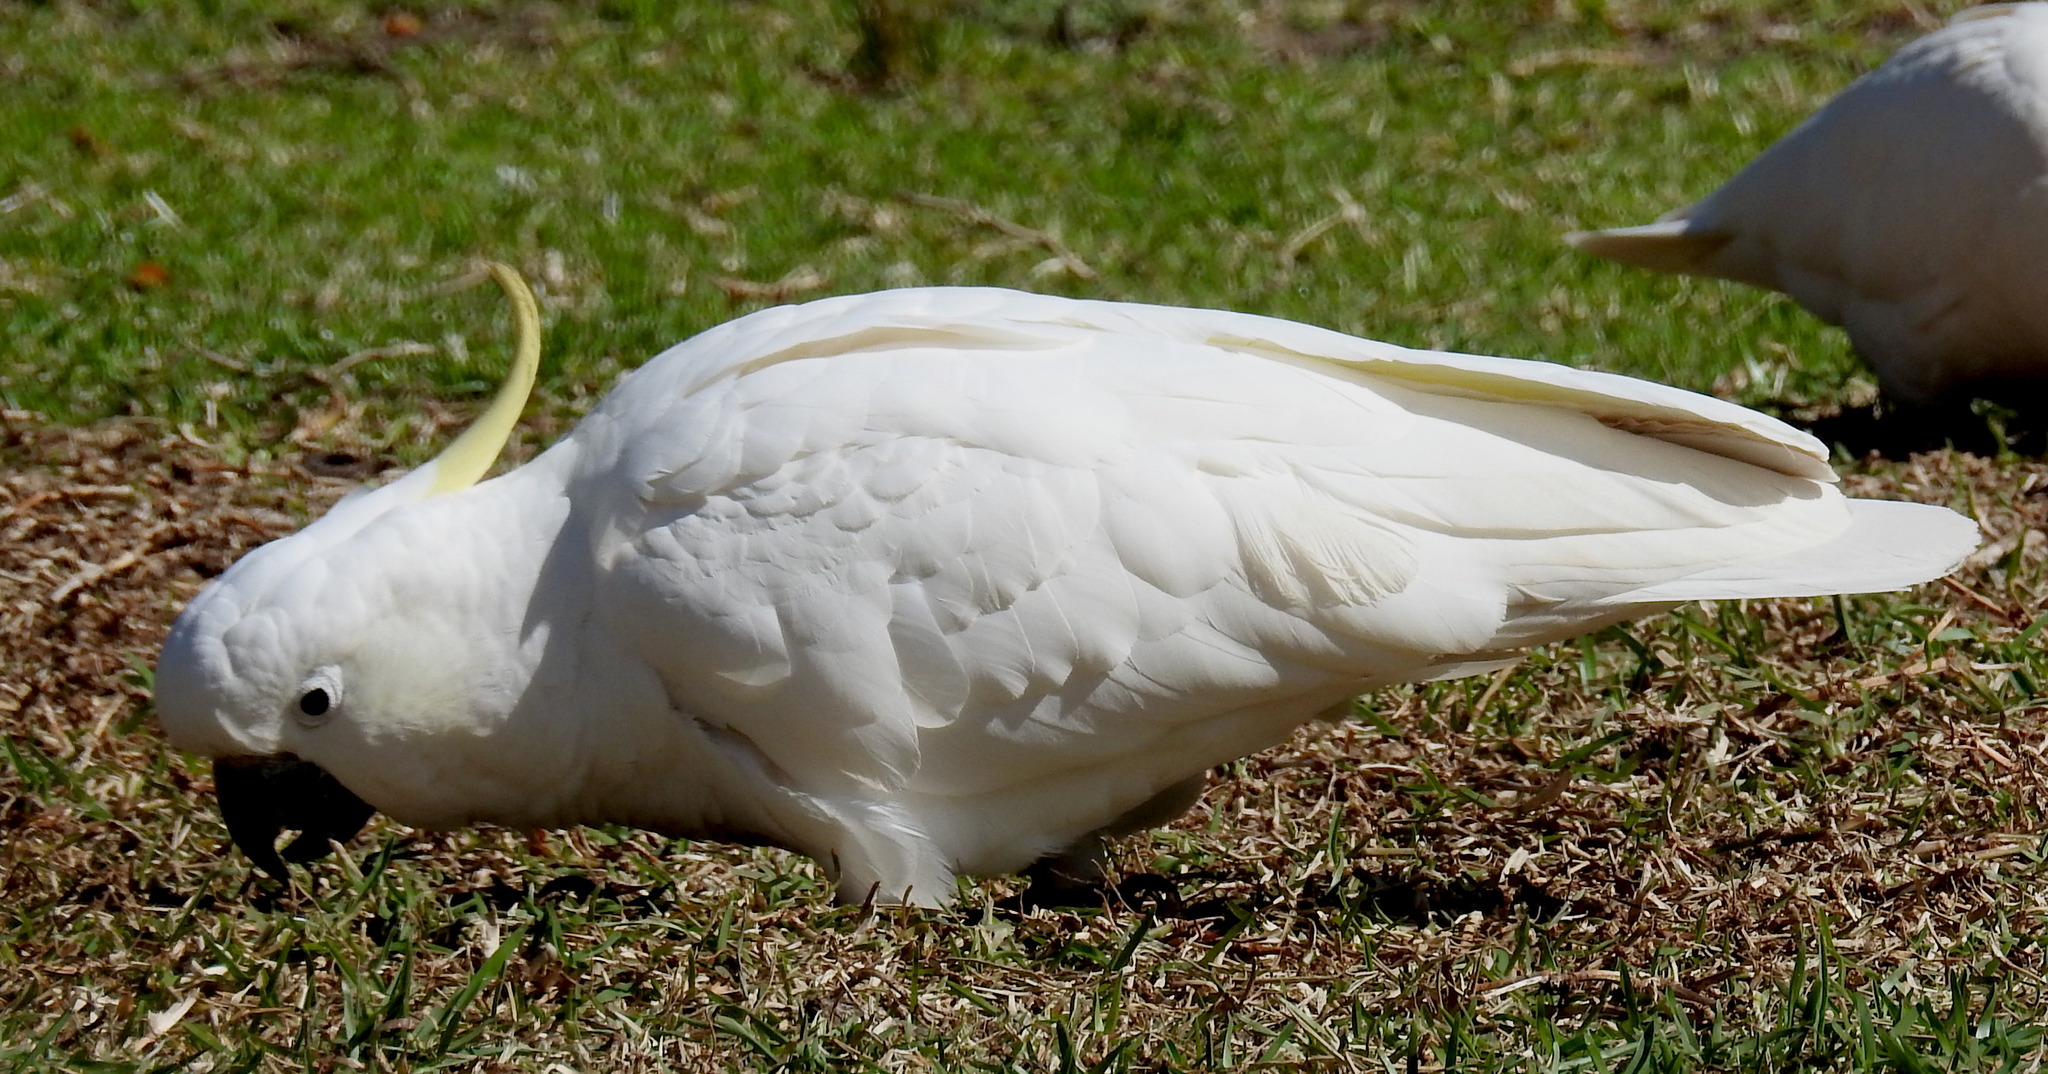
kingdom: Animalia
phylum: Chordata
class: Aves
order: Psittaciformes
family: Psittacidae
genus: Cacatua
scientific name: Cacatua galerita
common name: Sulphur-crested cockatoo
